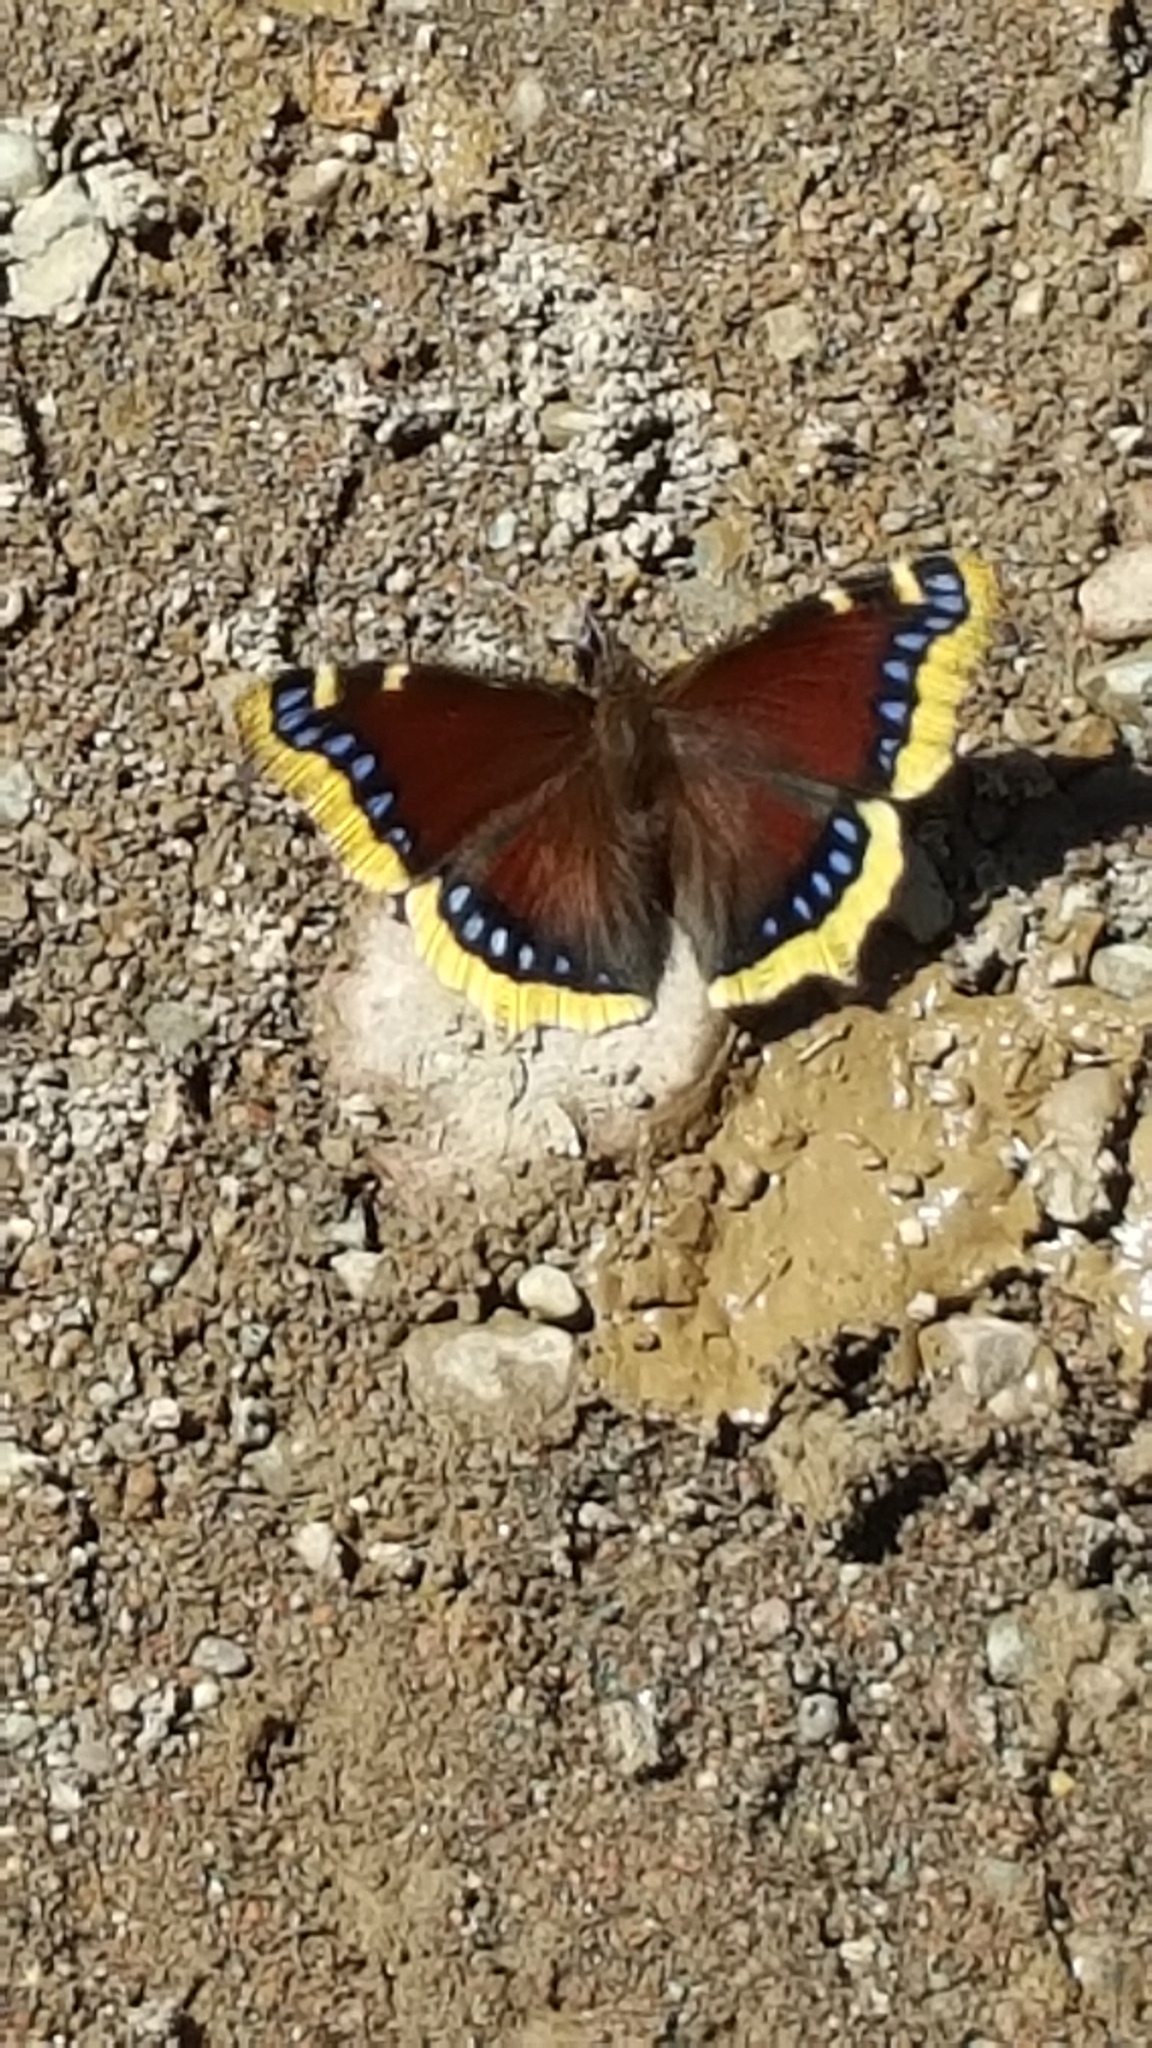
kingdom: Animalia
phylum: Arthropoda
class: Insecta
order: Lepidoptera
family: Nymphalidae
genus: Nymphalis
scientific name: Nymphalis antiopa
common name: Camberwell beauty
